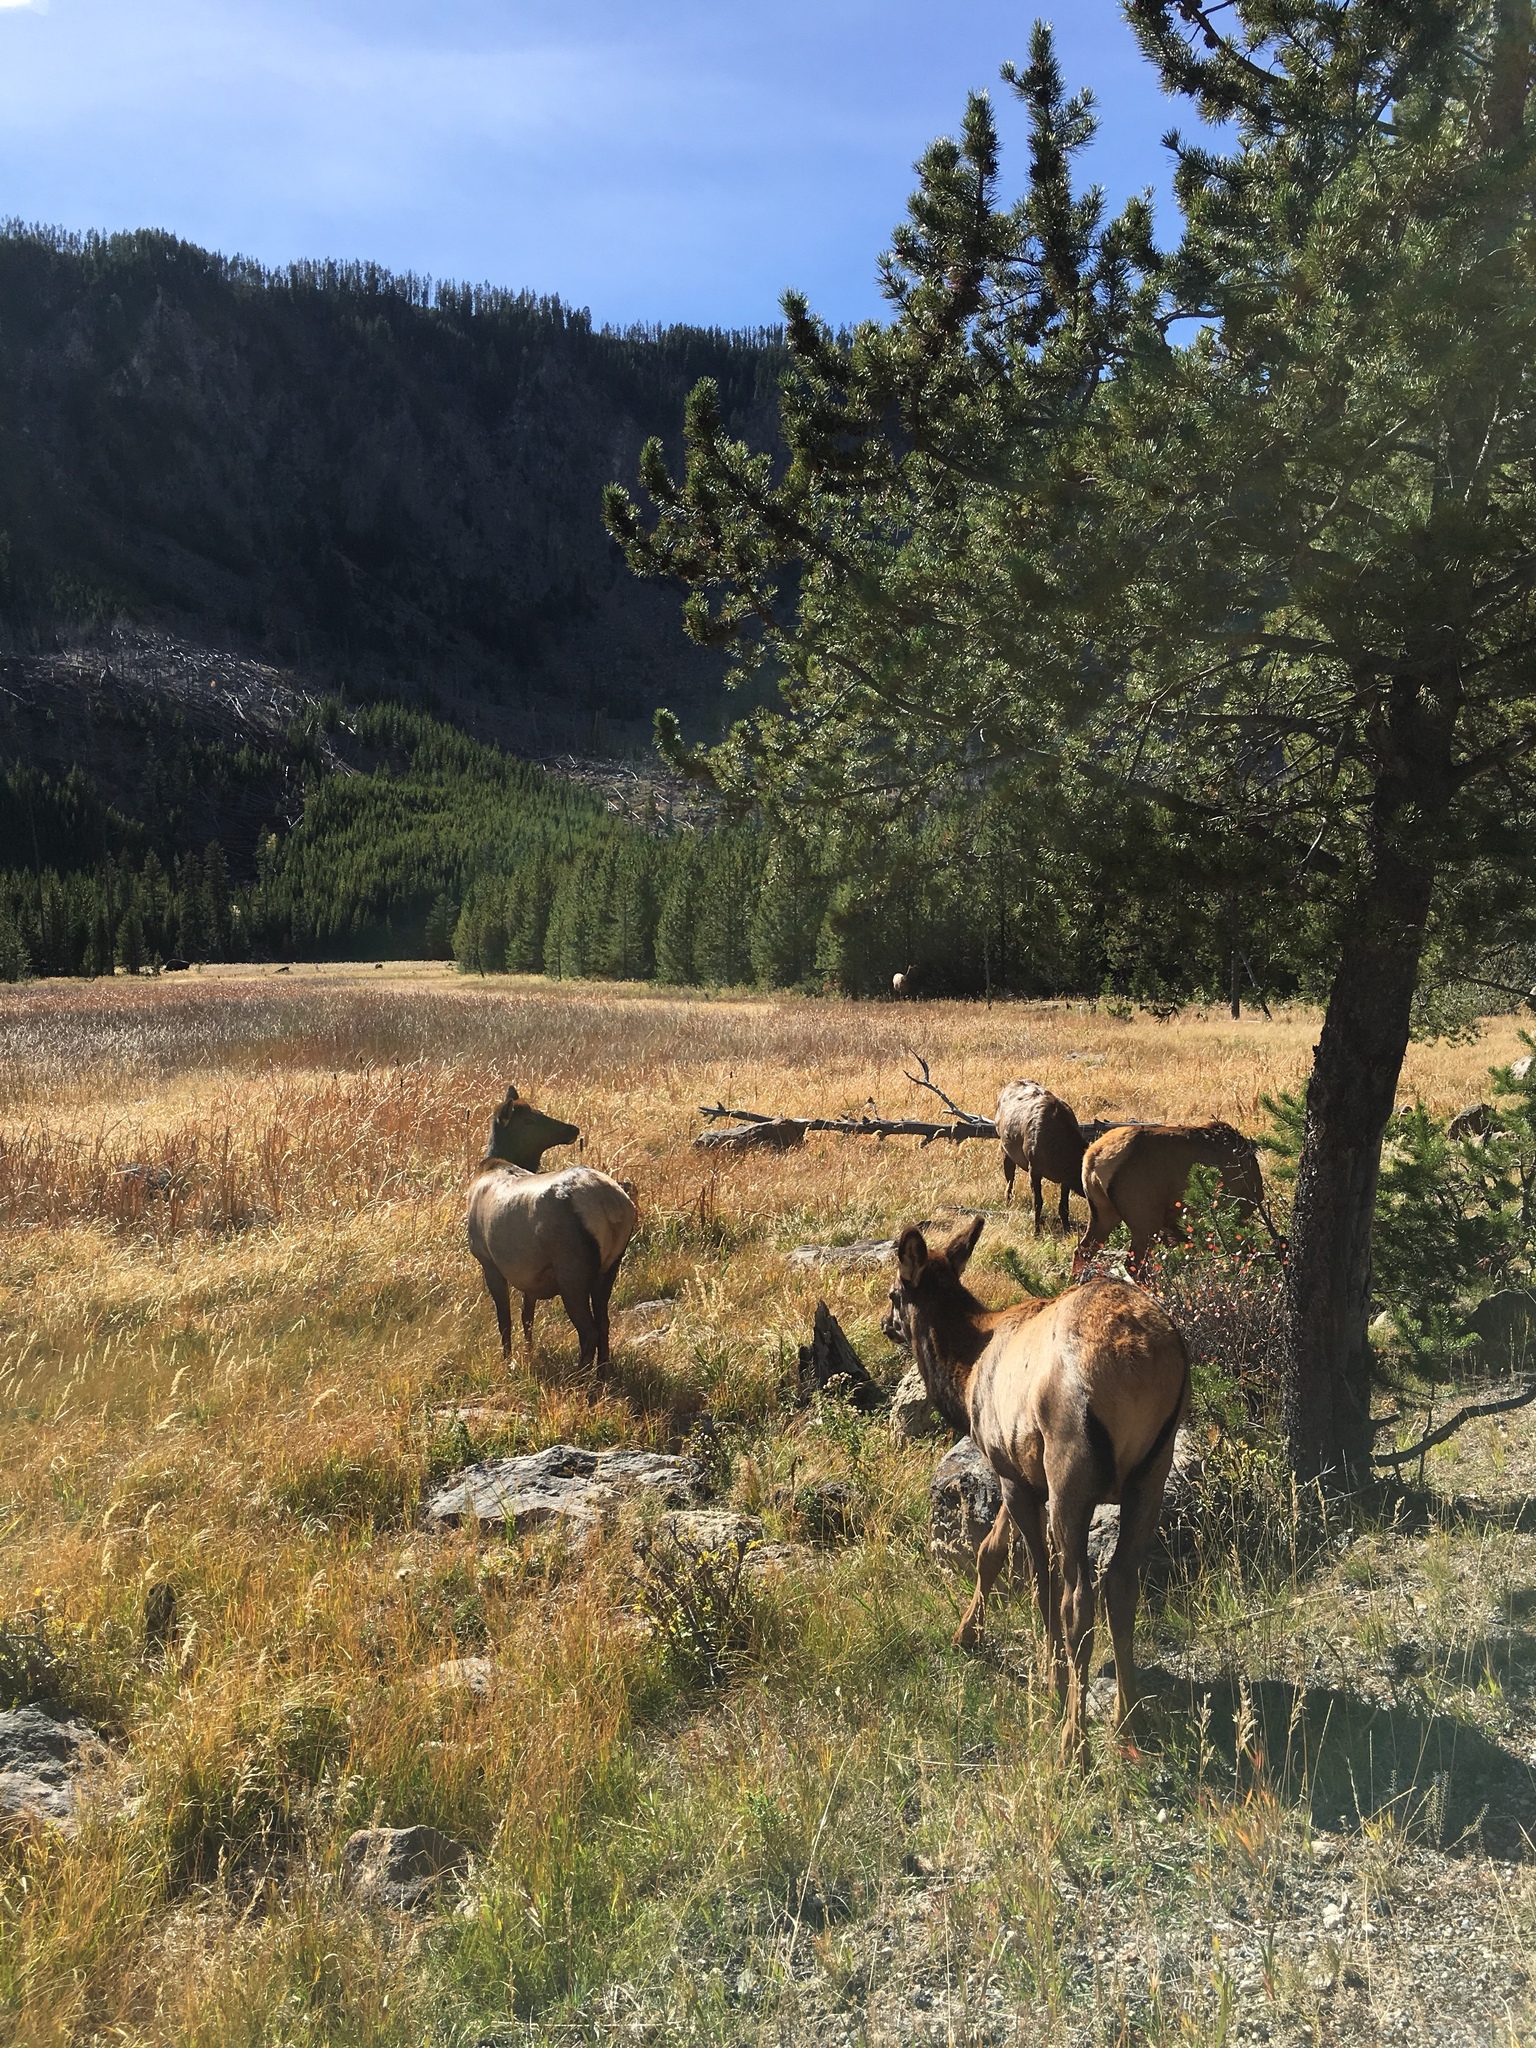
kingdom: Animalia
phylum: Chordata
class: Mammalia
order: Artiodactyla
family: Cervidae
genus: Cervus
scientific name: Cervus elaphus
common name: Red deer
